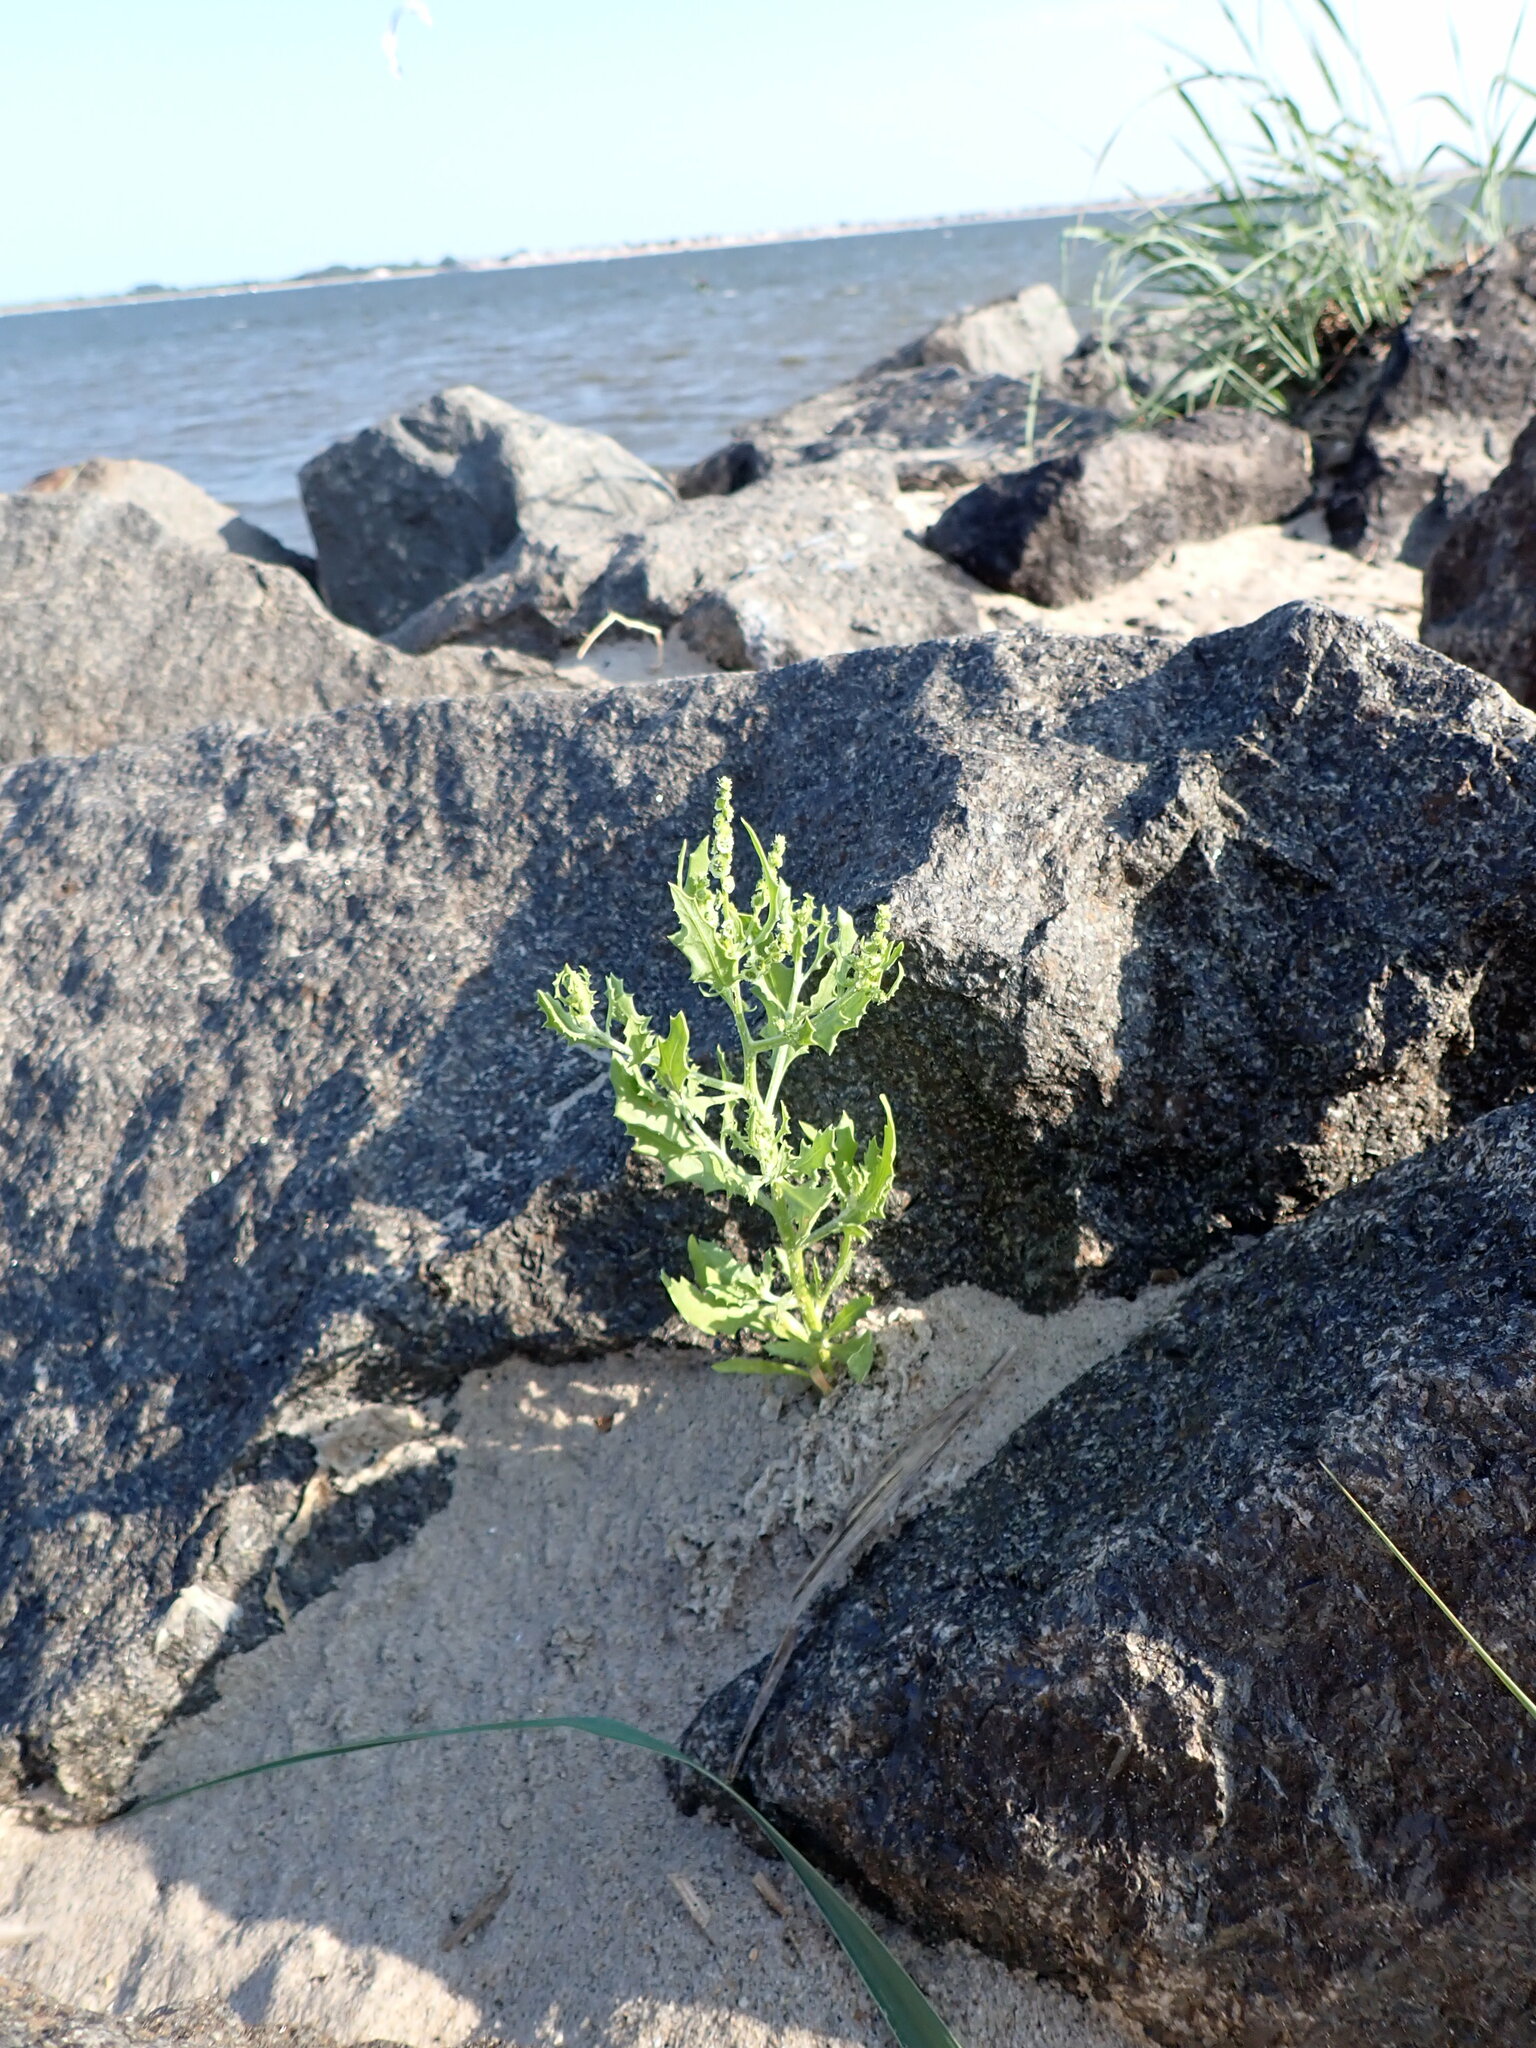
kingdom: Plantae
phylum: Tracheophyta
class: Magnoliopsida
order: Caryophyllales
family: Amaranthaceae
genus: Dysphania
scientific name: Dysphania atriplicifolia
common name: Plains tumbleweed
